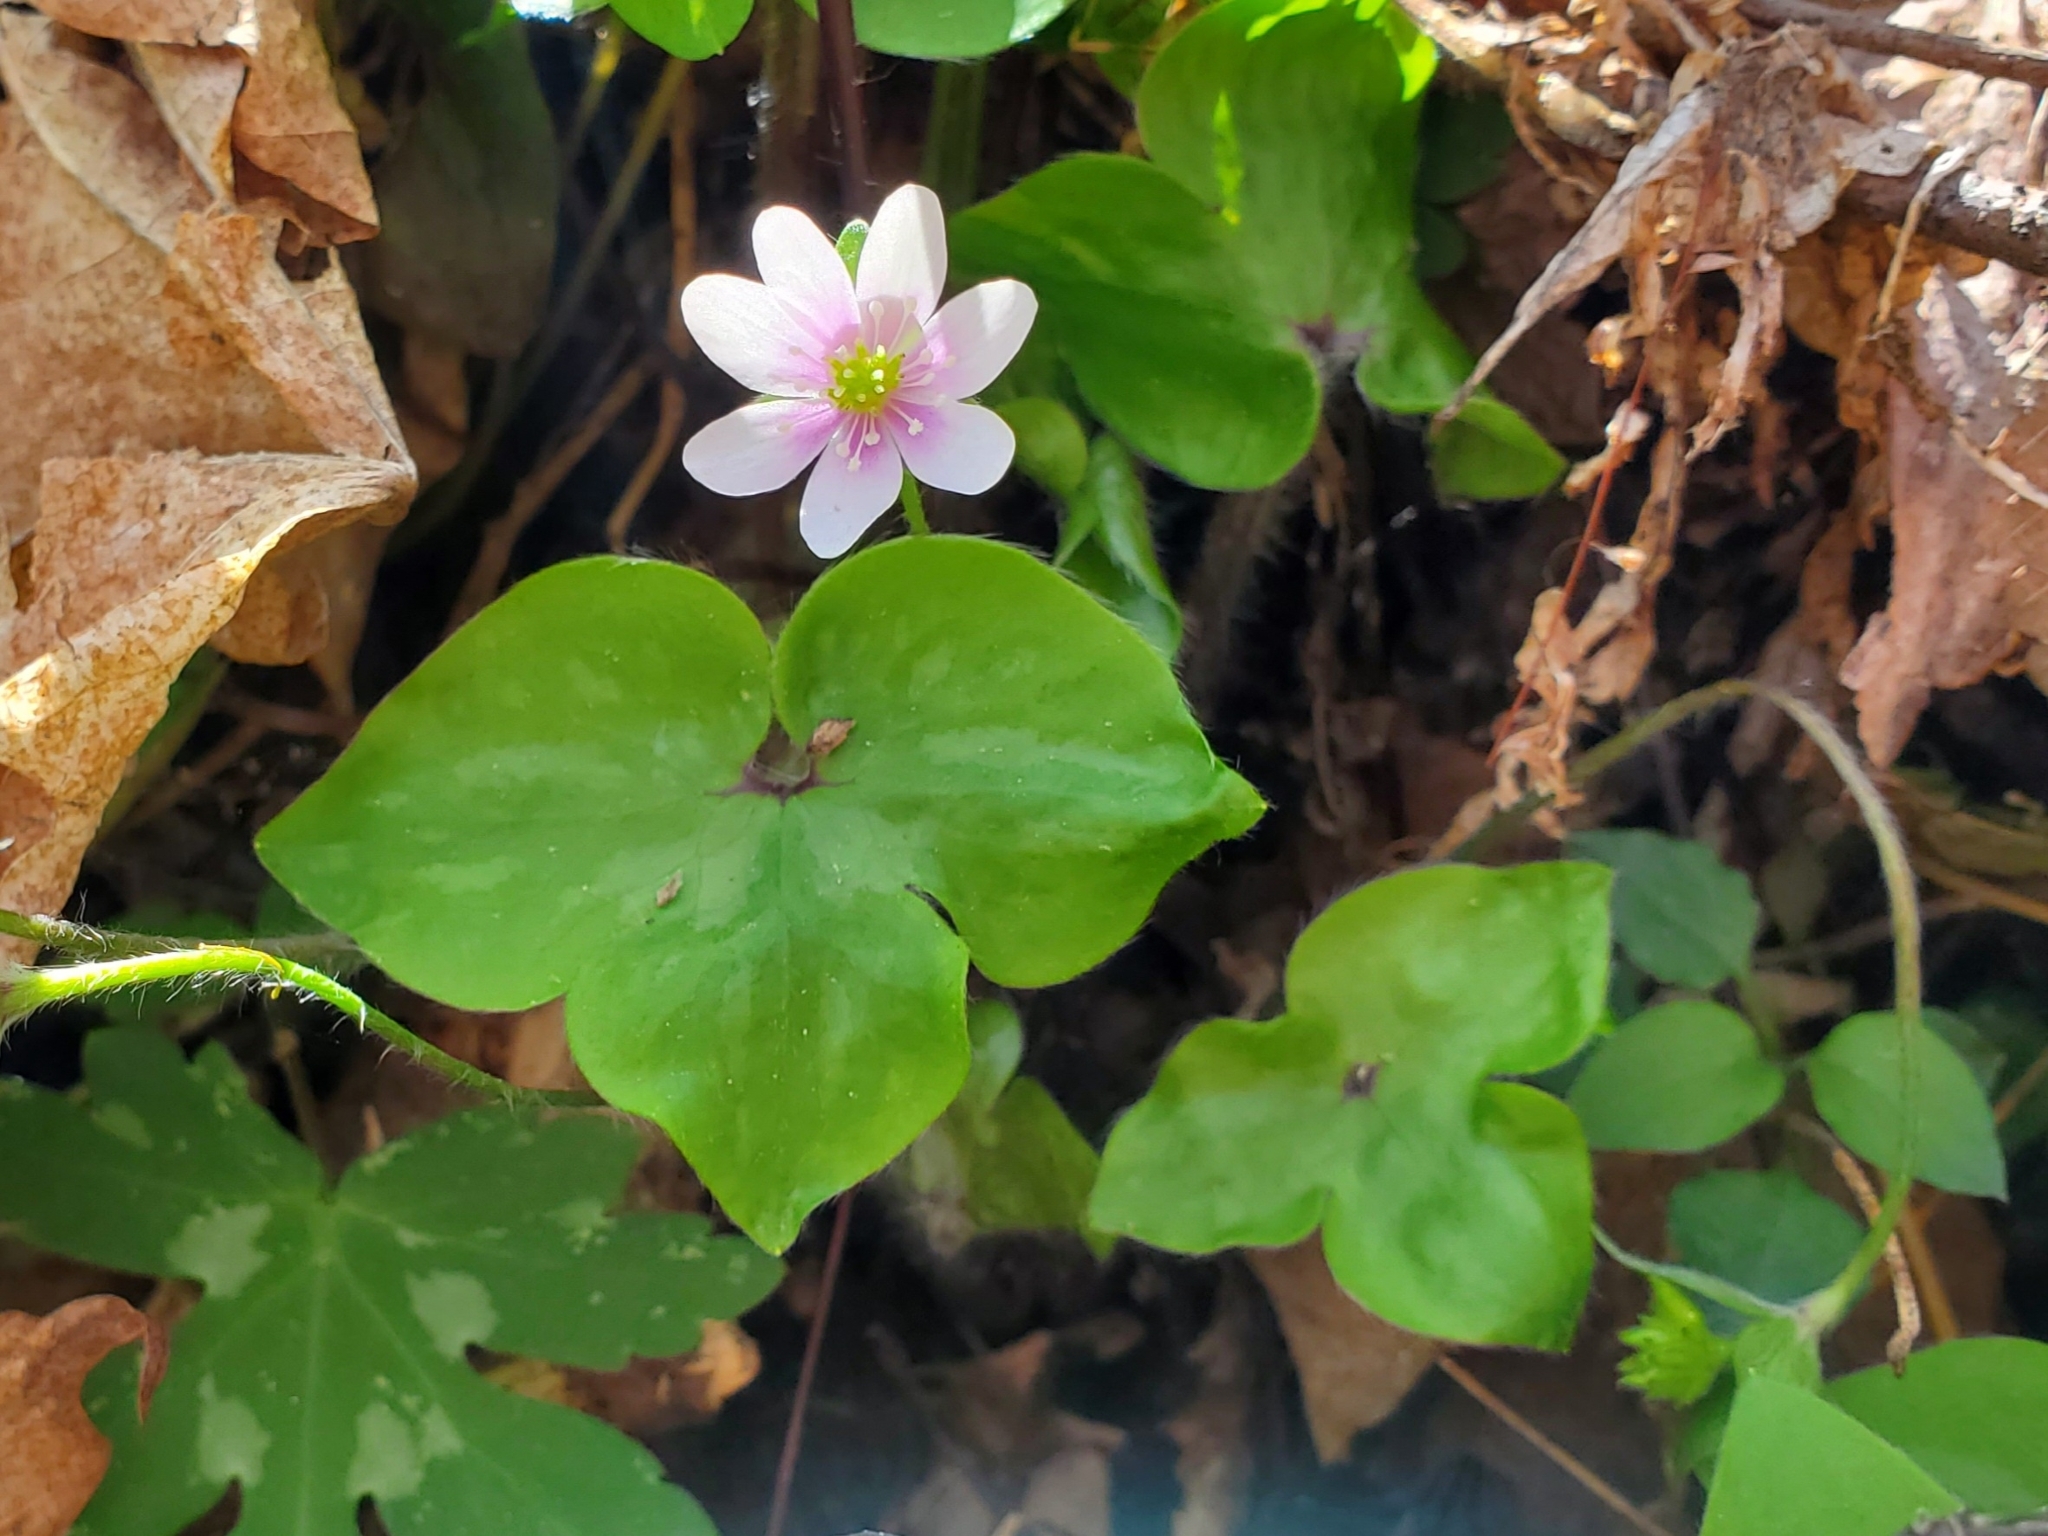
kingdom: Plantae
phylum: Tracheophyta
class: Magnoliopsida
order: Ranunculales
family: Ranunculaceae
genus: Hepatica
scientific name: Hepatica acutiloba
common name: Sharp-lobed hepatica
